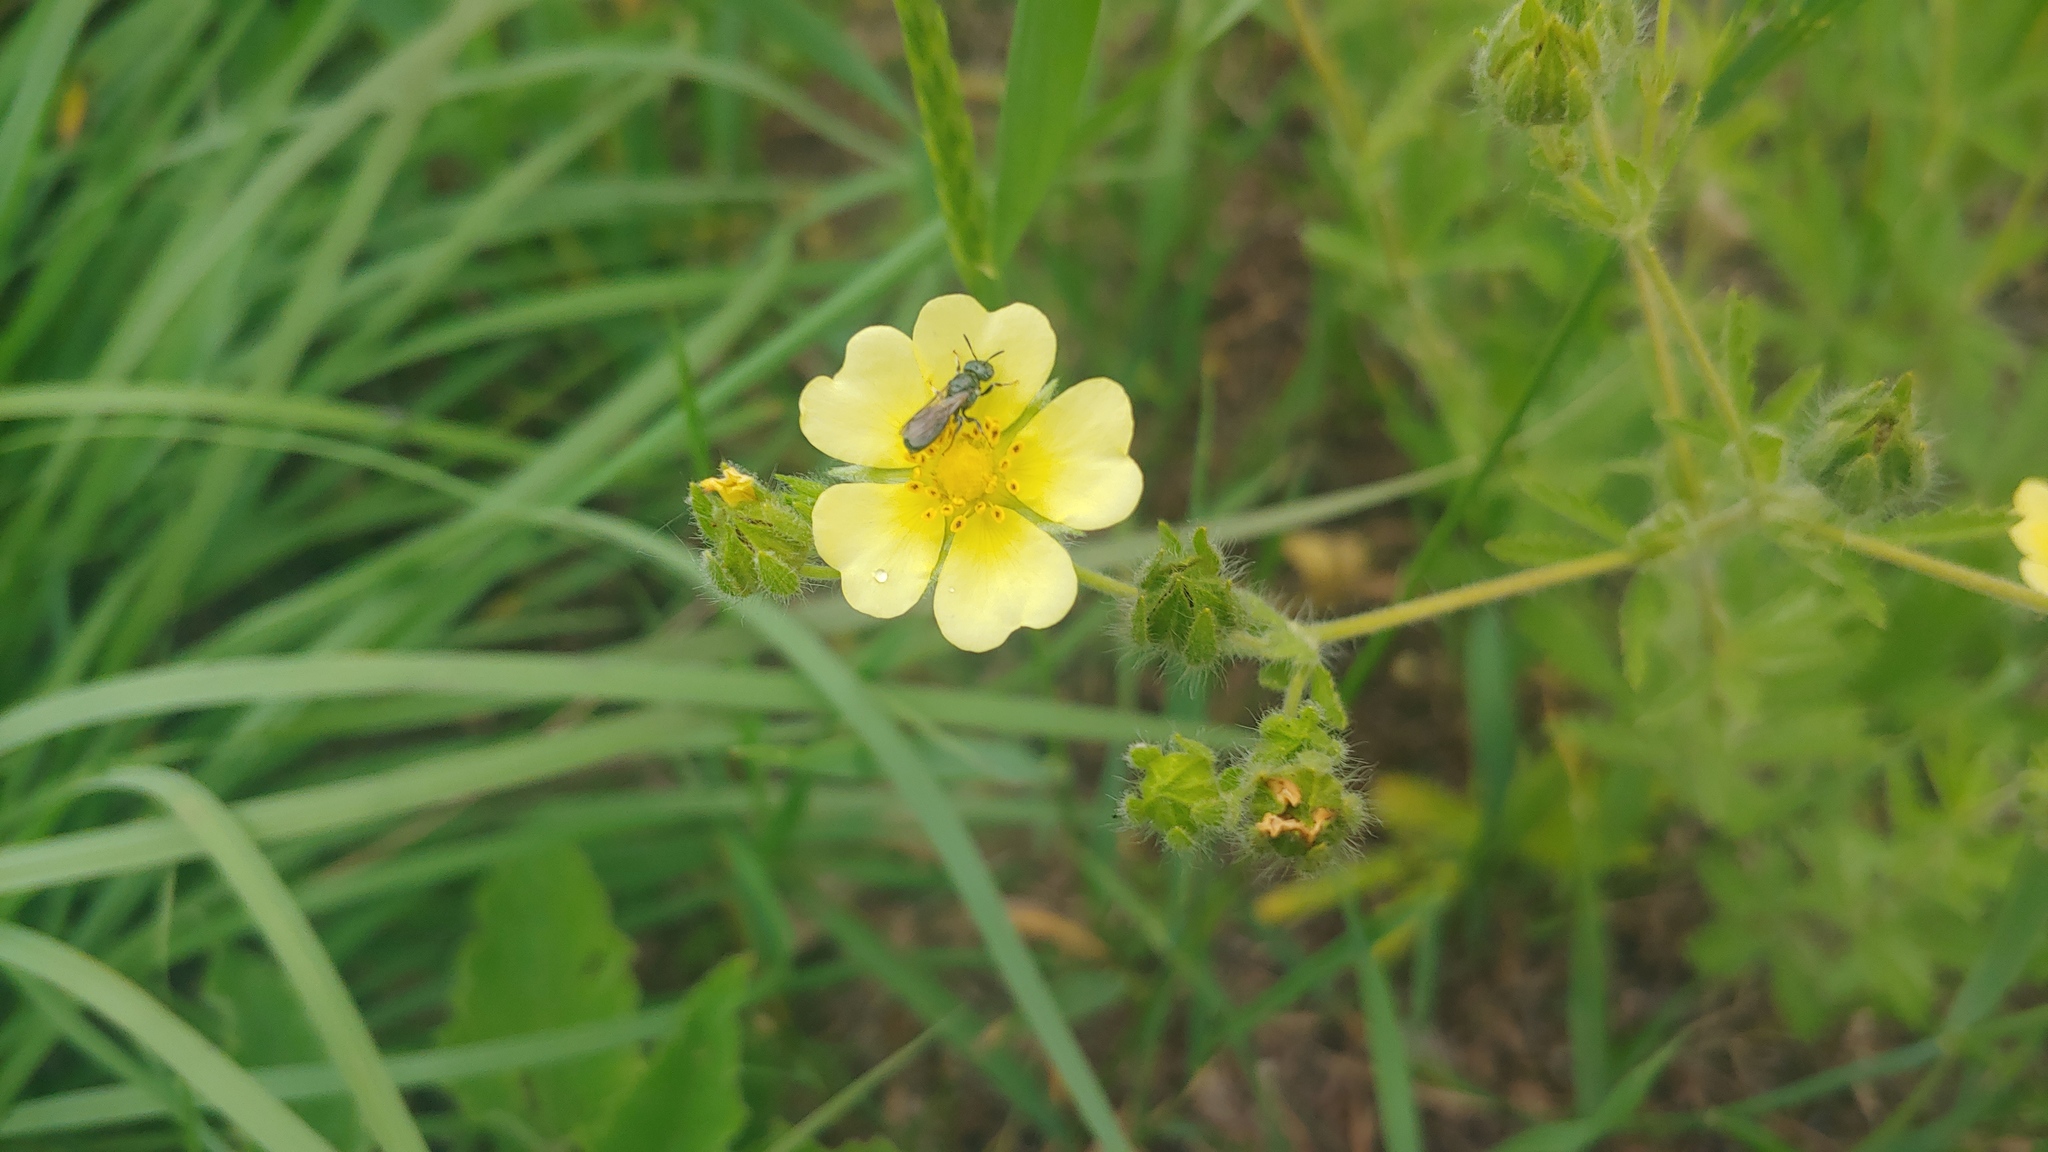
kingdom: Plantae
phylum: Tracheophyta
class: Magnoliopsida
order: Rosales
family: Rosaceae
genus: Potentilla
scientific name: Potentilla recta
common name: Sulphur cinquefoil
